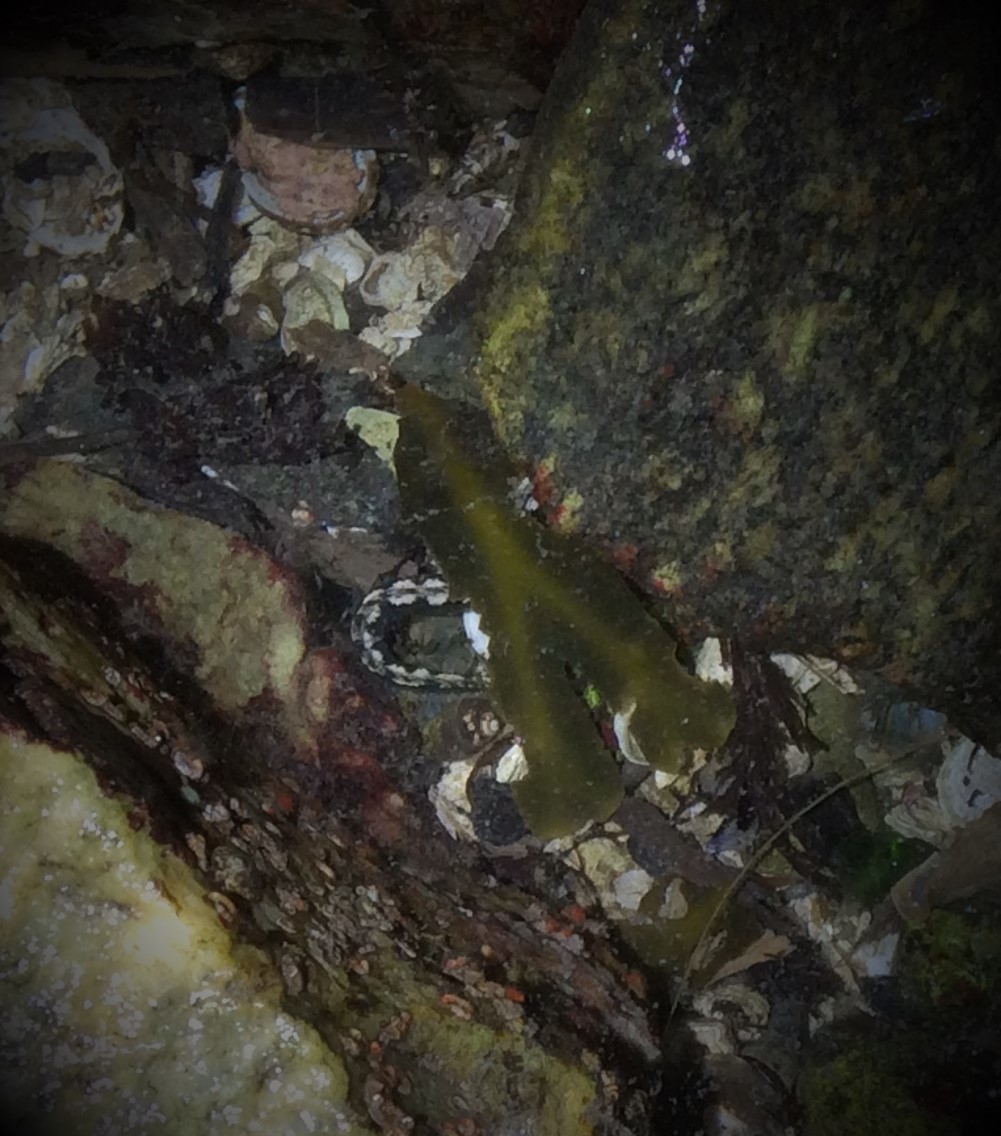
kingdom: Animalia
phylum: Chordata
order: Perciformes
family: Stichaeidae
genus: Anoplarchus
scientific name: Anoplarchus purpurescens
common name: High cockscomb
